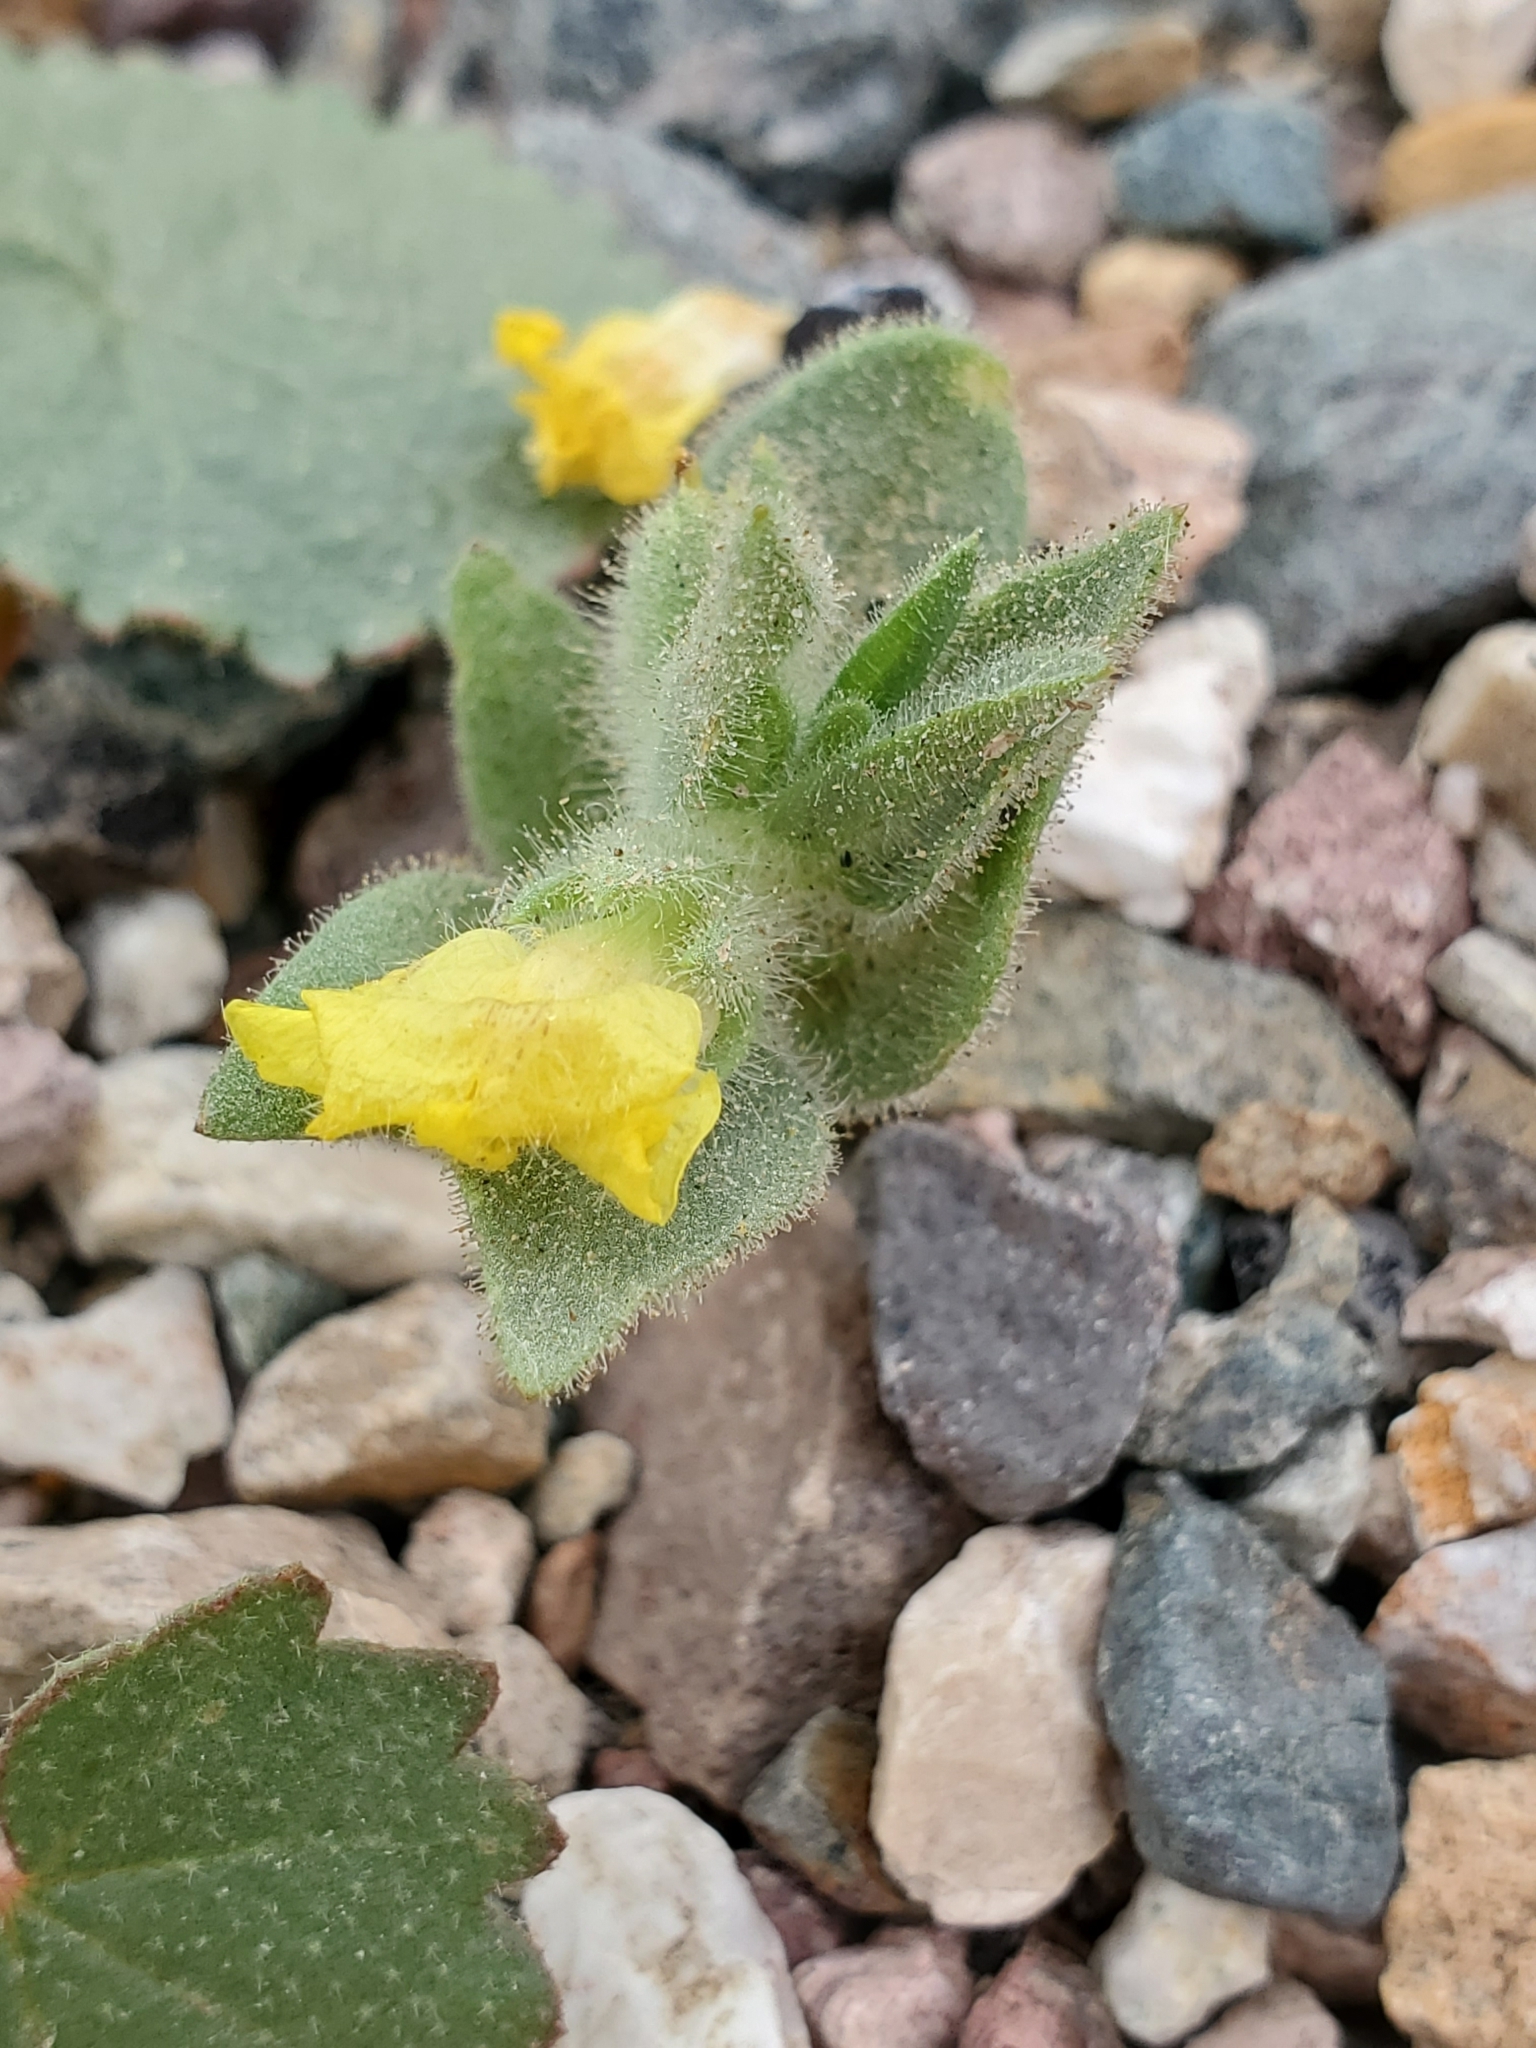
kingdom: Plantae
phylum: Tracheophyta
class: Magnoliopsida
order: Lamiales
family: Plantaginaceae
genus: Mohavea
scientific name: Mohavea breviflora
